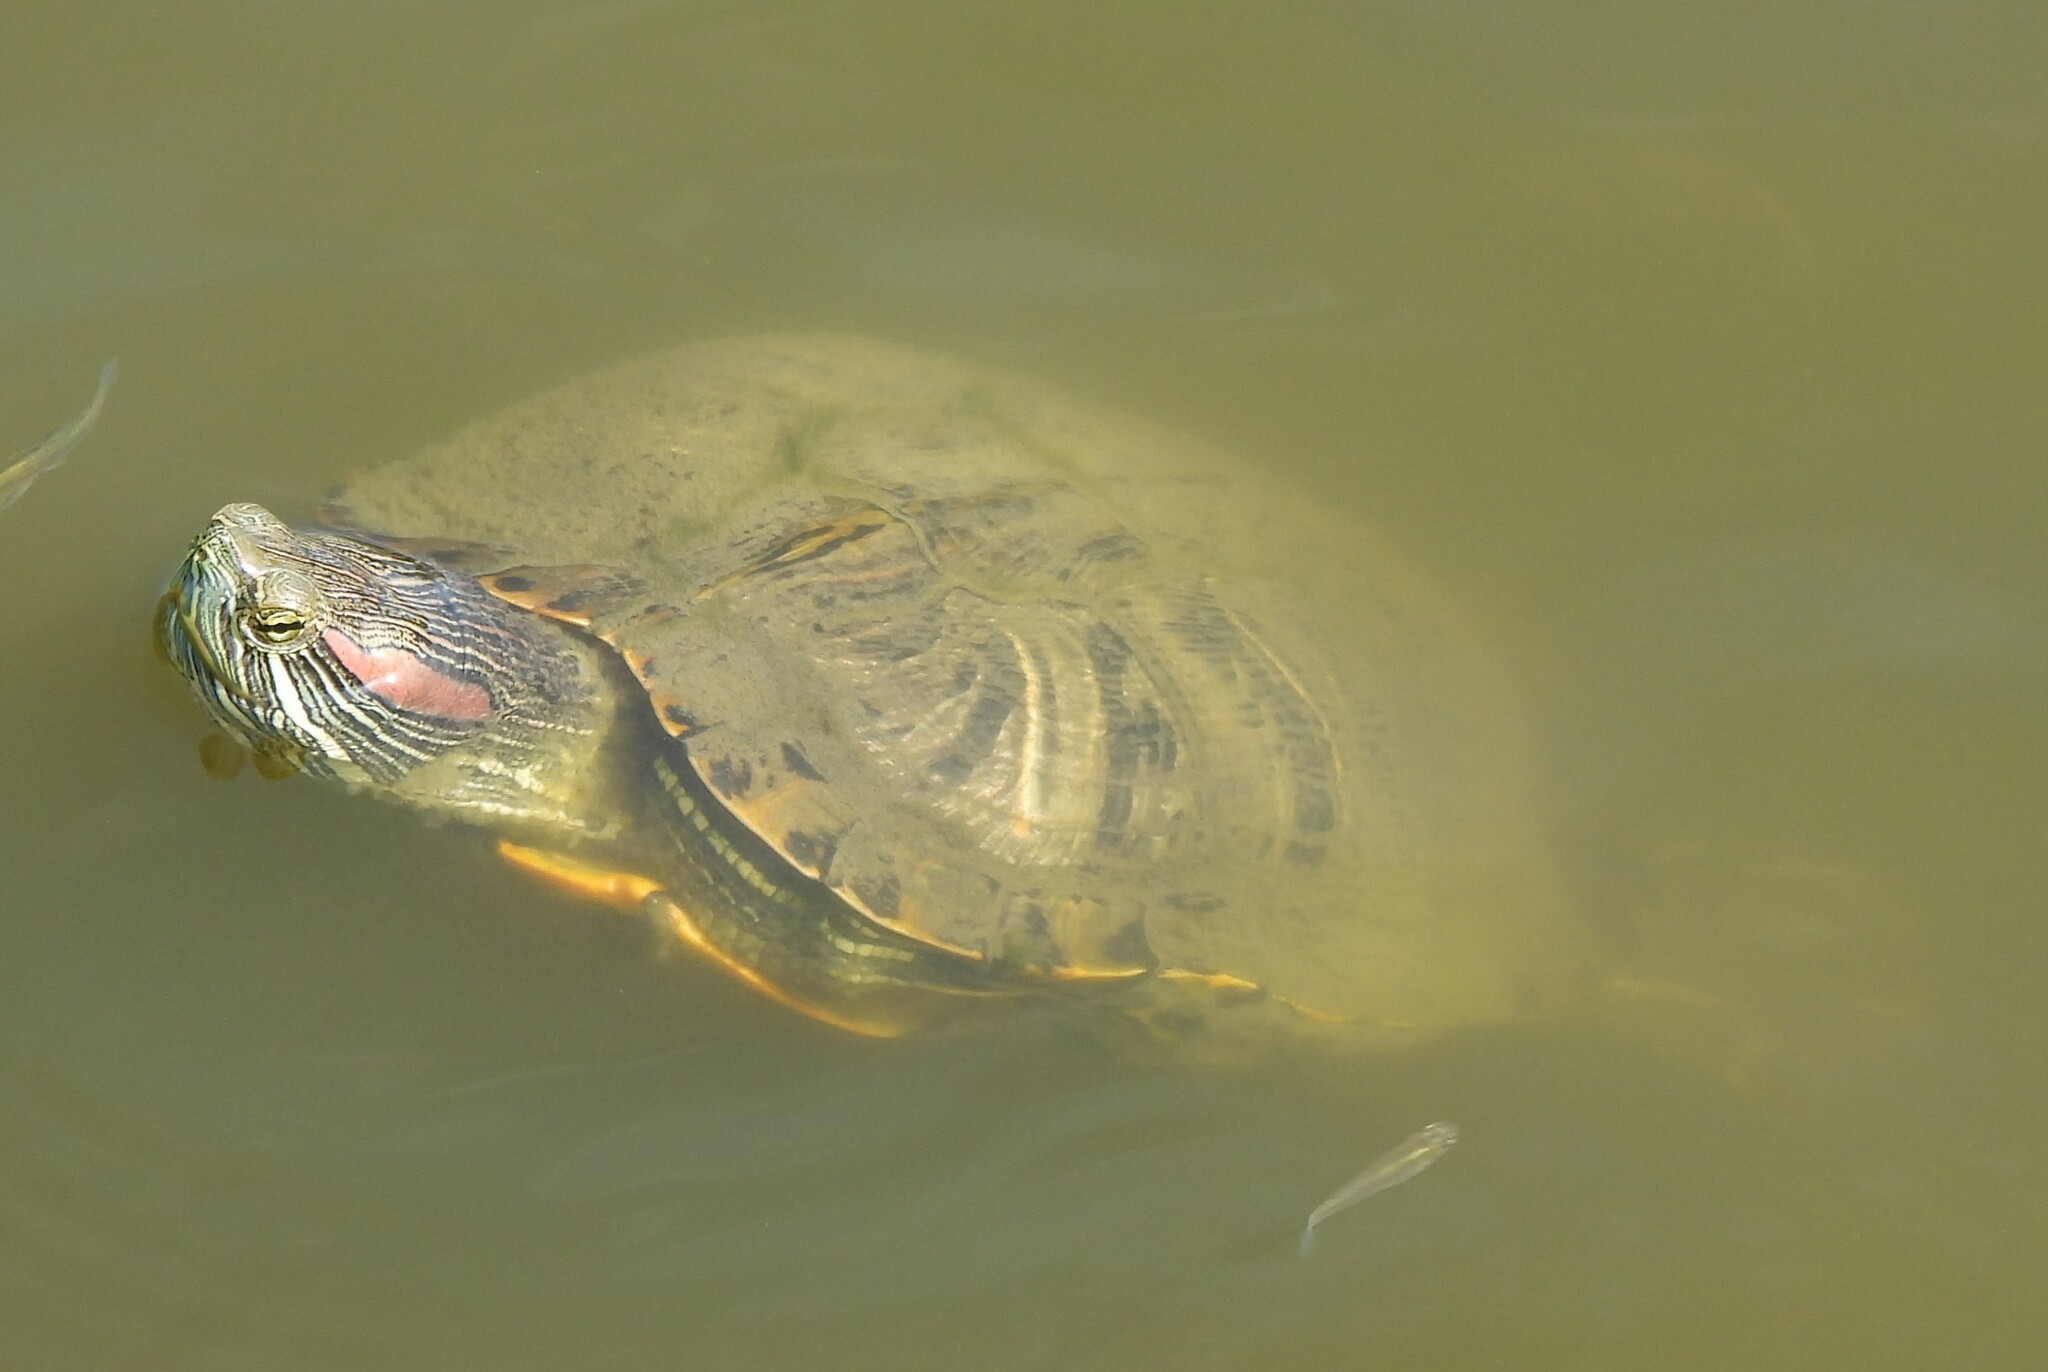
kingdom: Animalia
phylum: Chordata
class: Testudines
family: Emydidae
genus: Trachemys
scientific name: Trachemys scripta
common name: Slider
